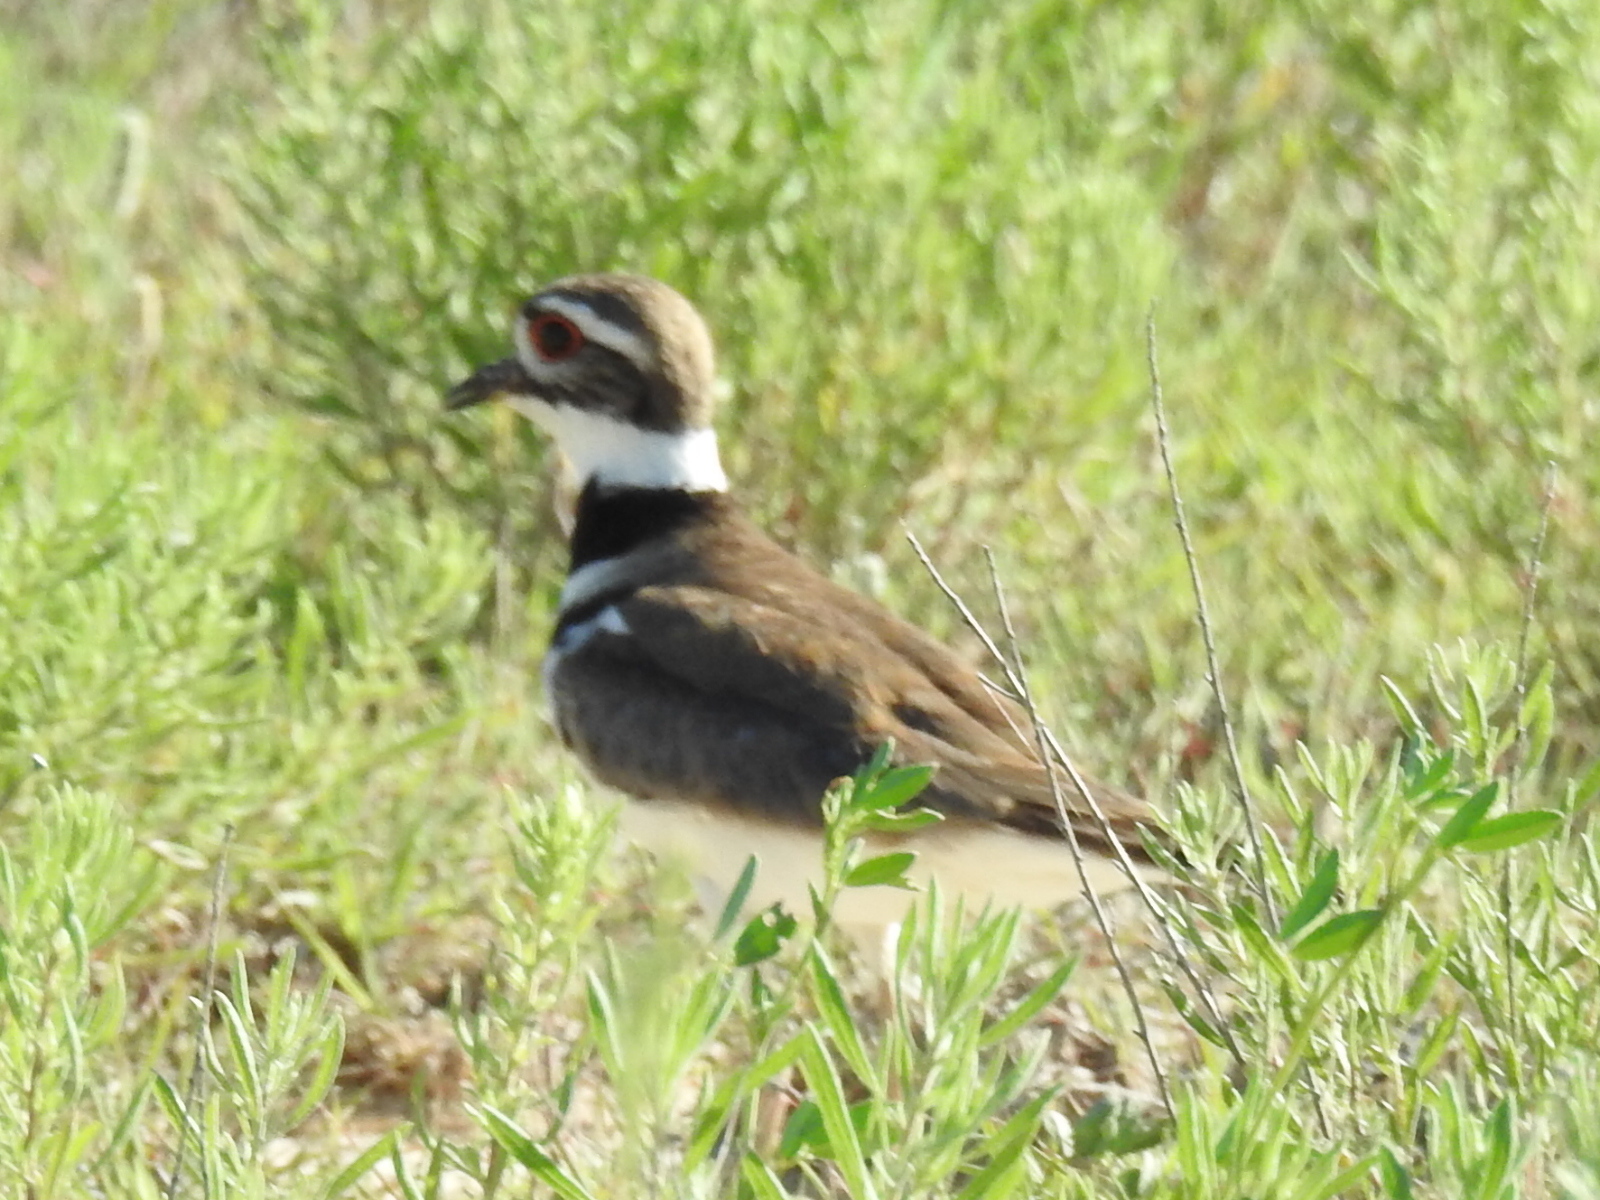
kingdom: Animalia
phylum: Chordata
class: Aves
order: Charadriiformes
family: Charadriidae
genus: Charadrius
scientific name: Charadrius vociferus
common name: Killdeer
